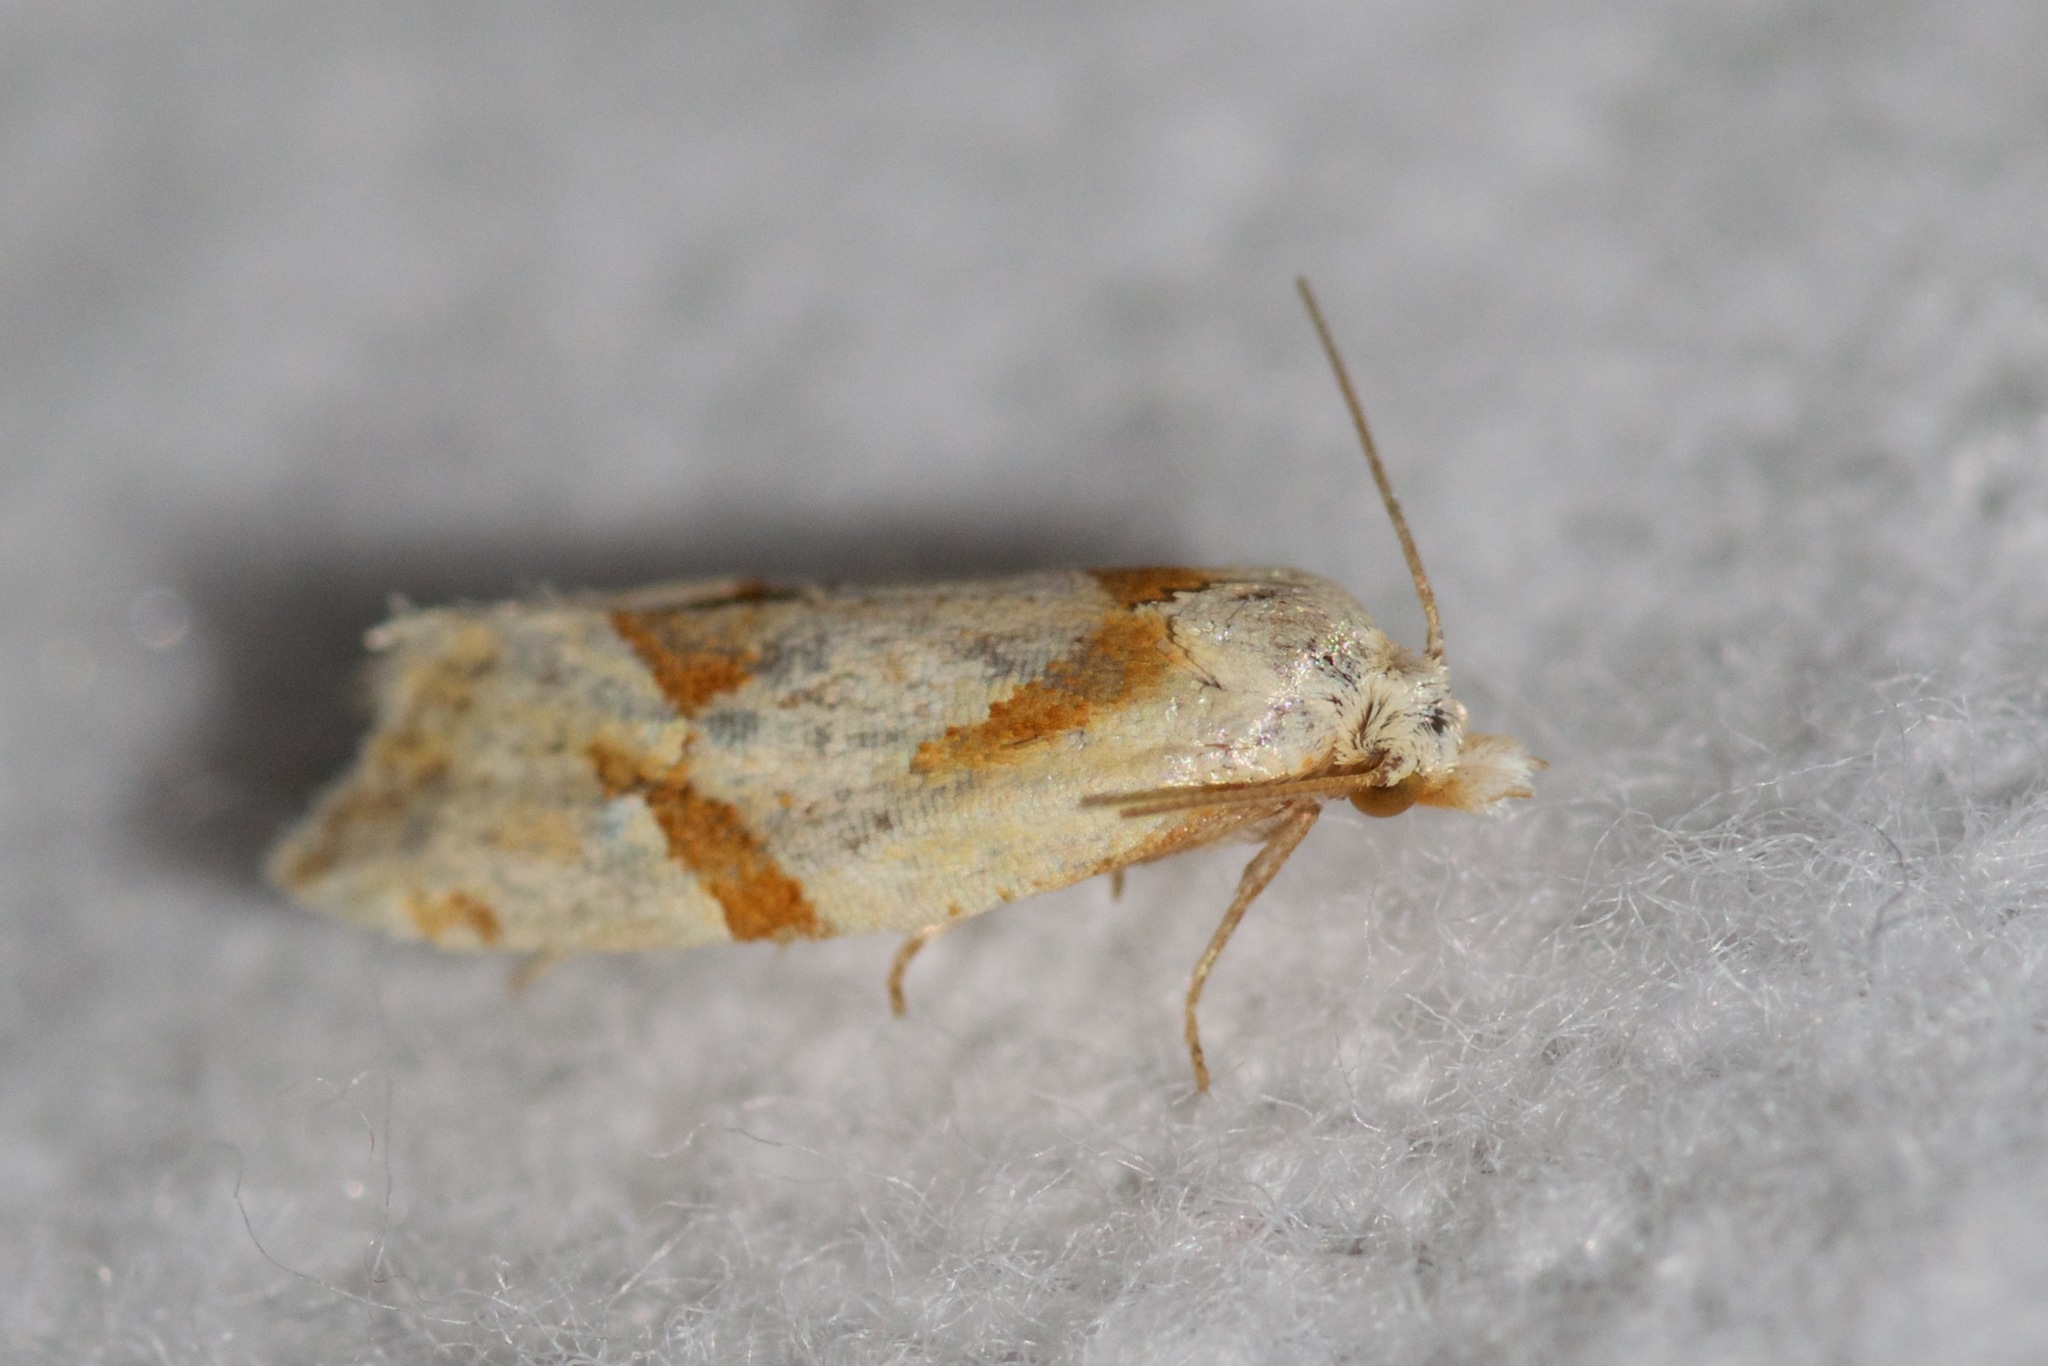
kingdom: Animalia
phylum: Arthropoda
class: Insecta
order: Lepidoptera
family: Tortricidae
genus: Aethes
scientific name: Aethes patricia
